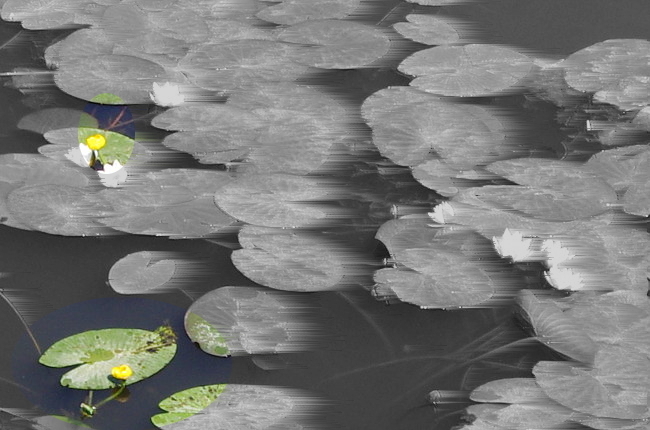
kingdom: Plantae
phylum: Tracheophyta
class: Magnoliopsida
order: Nymphaeales
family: Nymphaeaceae
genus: Nuphar
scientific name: Nuphar lutea
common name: Yellow water-lily
